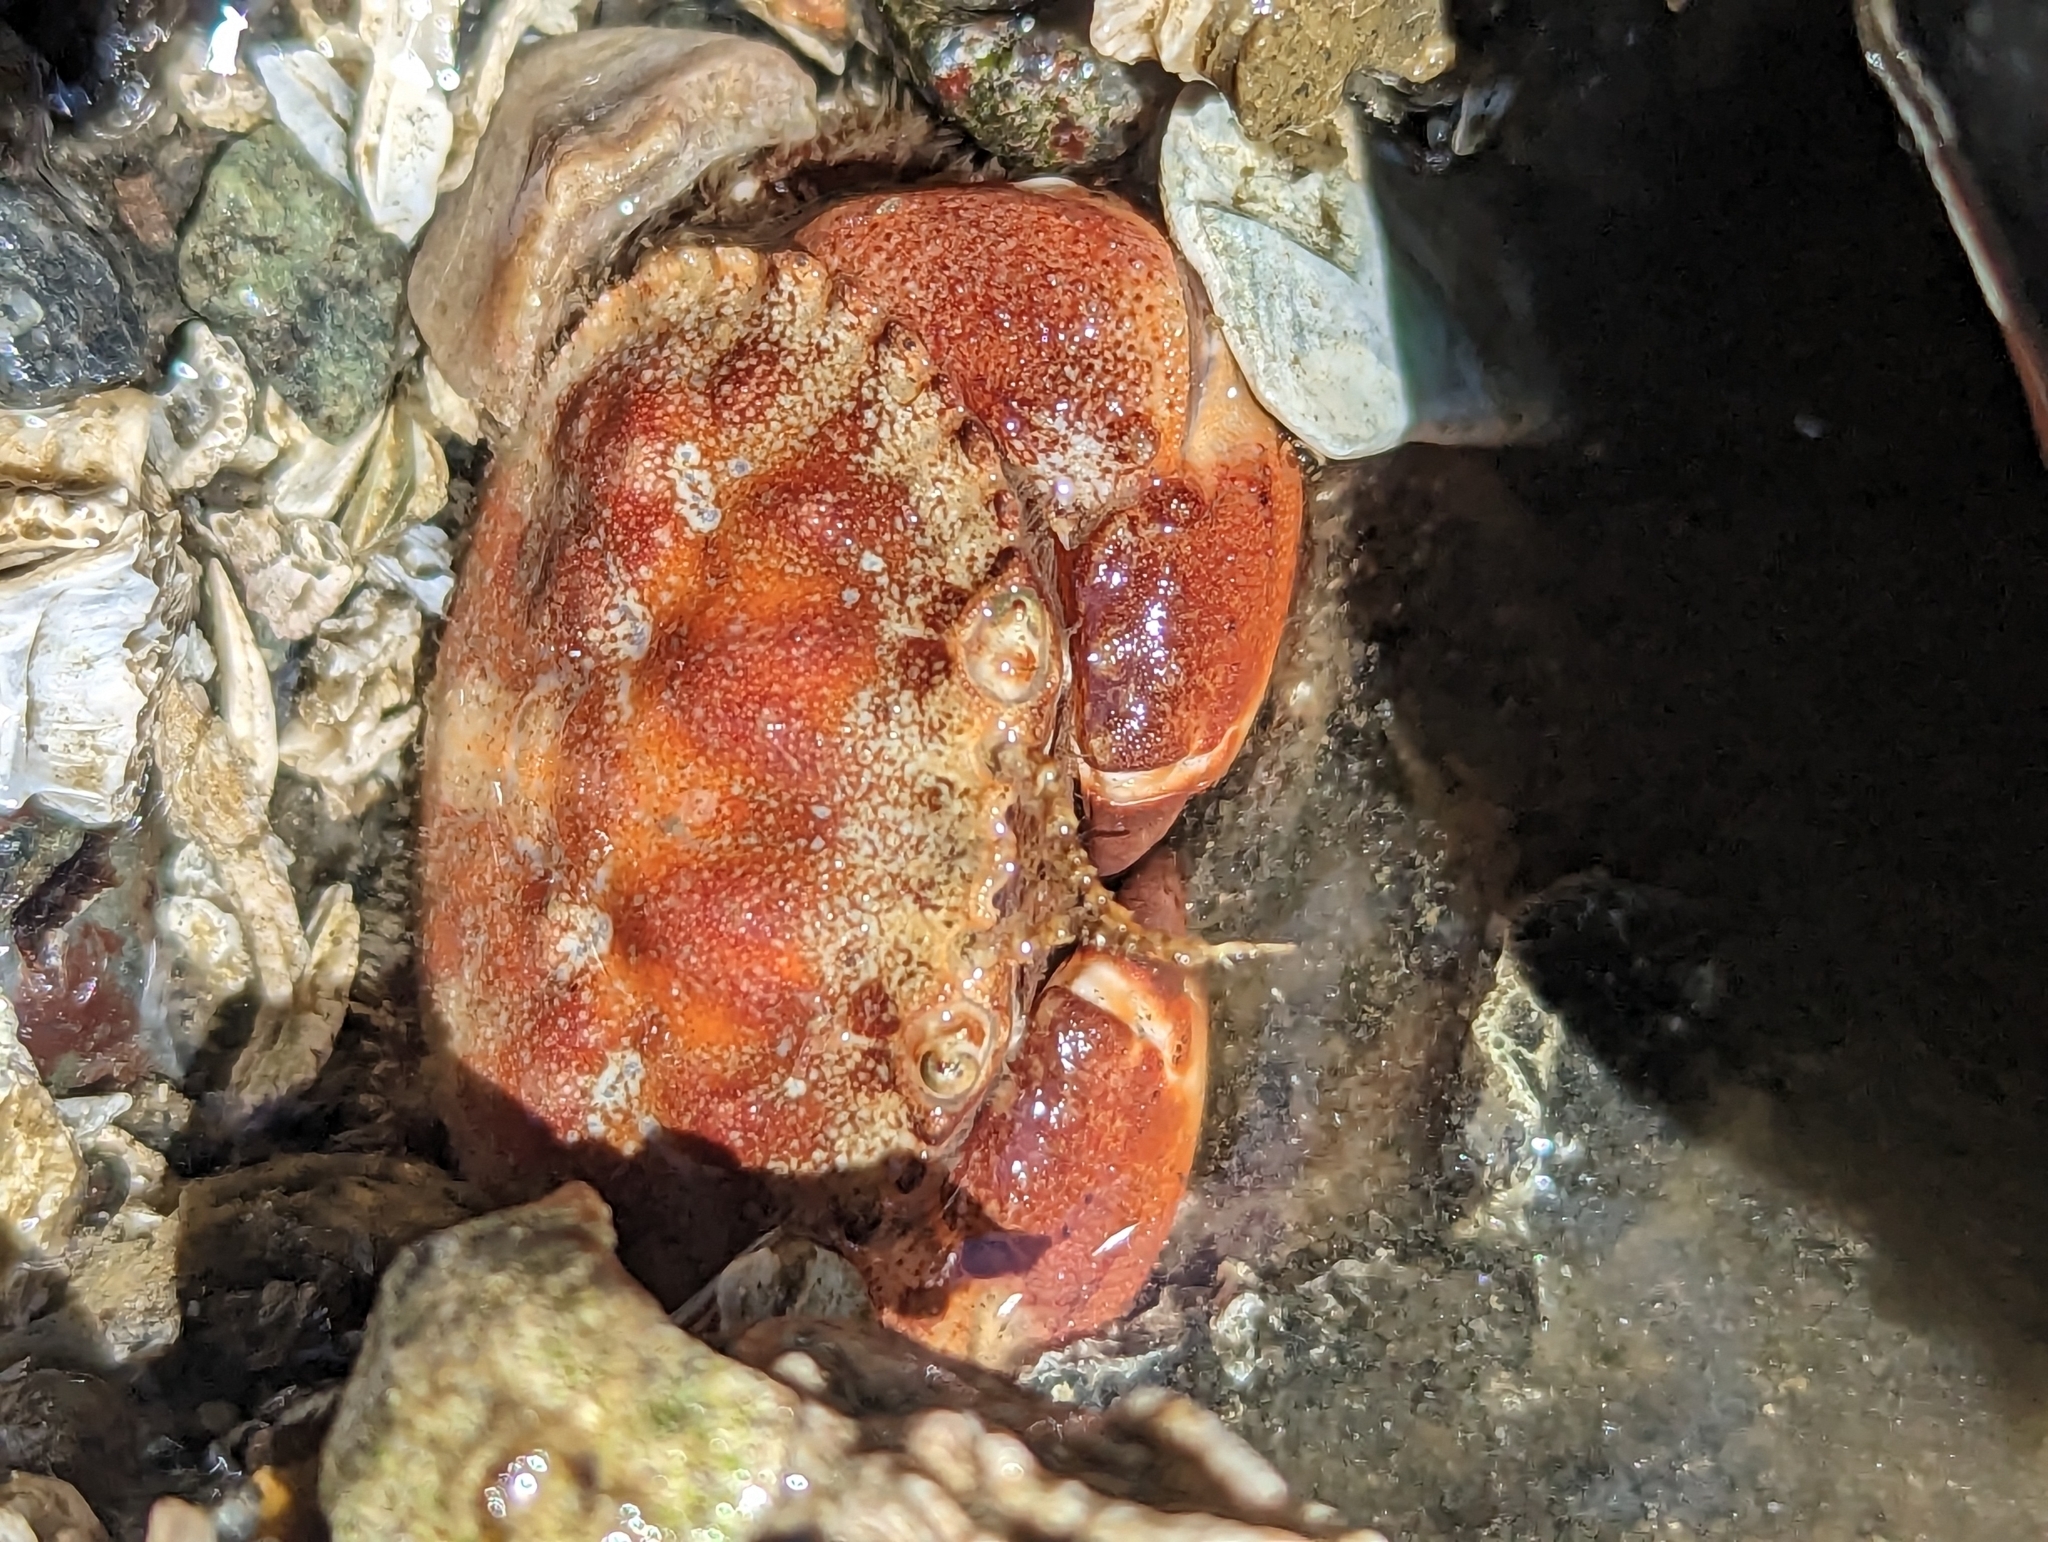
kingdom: Animalia
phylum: Arthropoda
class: Malacostraca
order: Decapoda
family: Cancridae
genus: Glebocarcinus
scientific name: Glebocarcinus oregonensis
